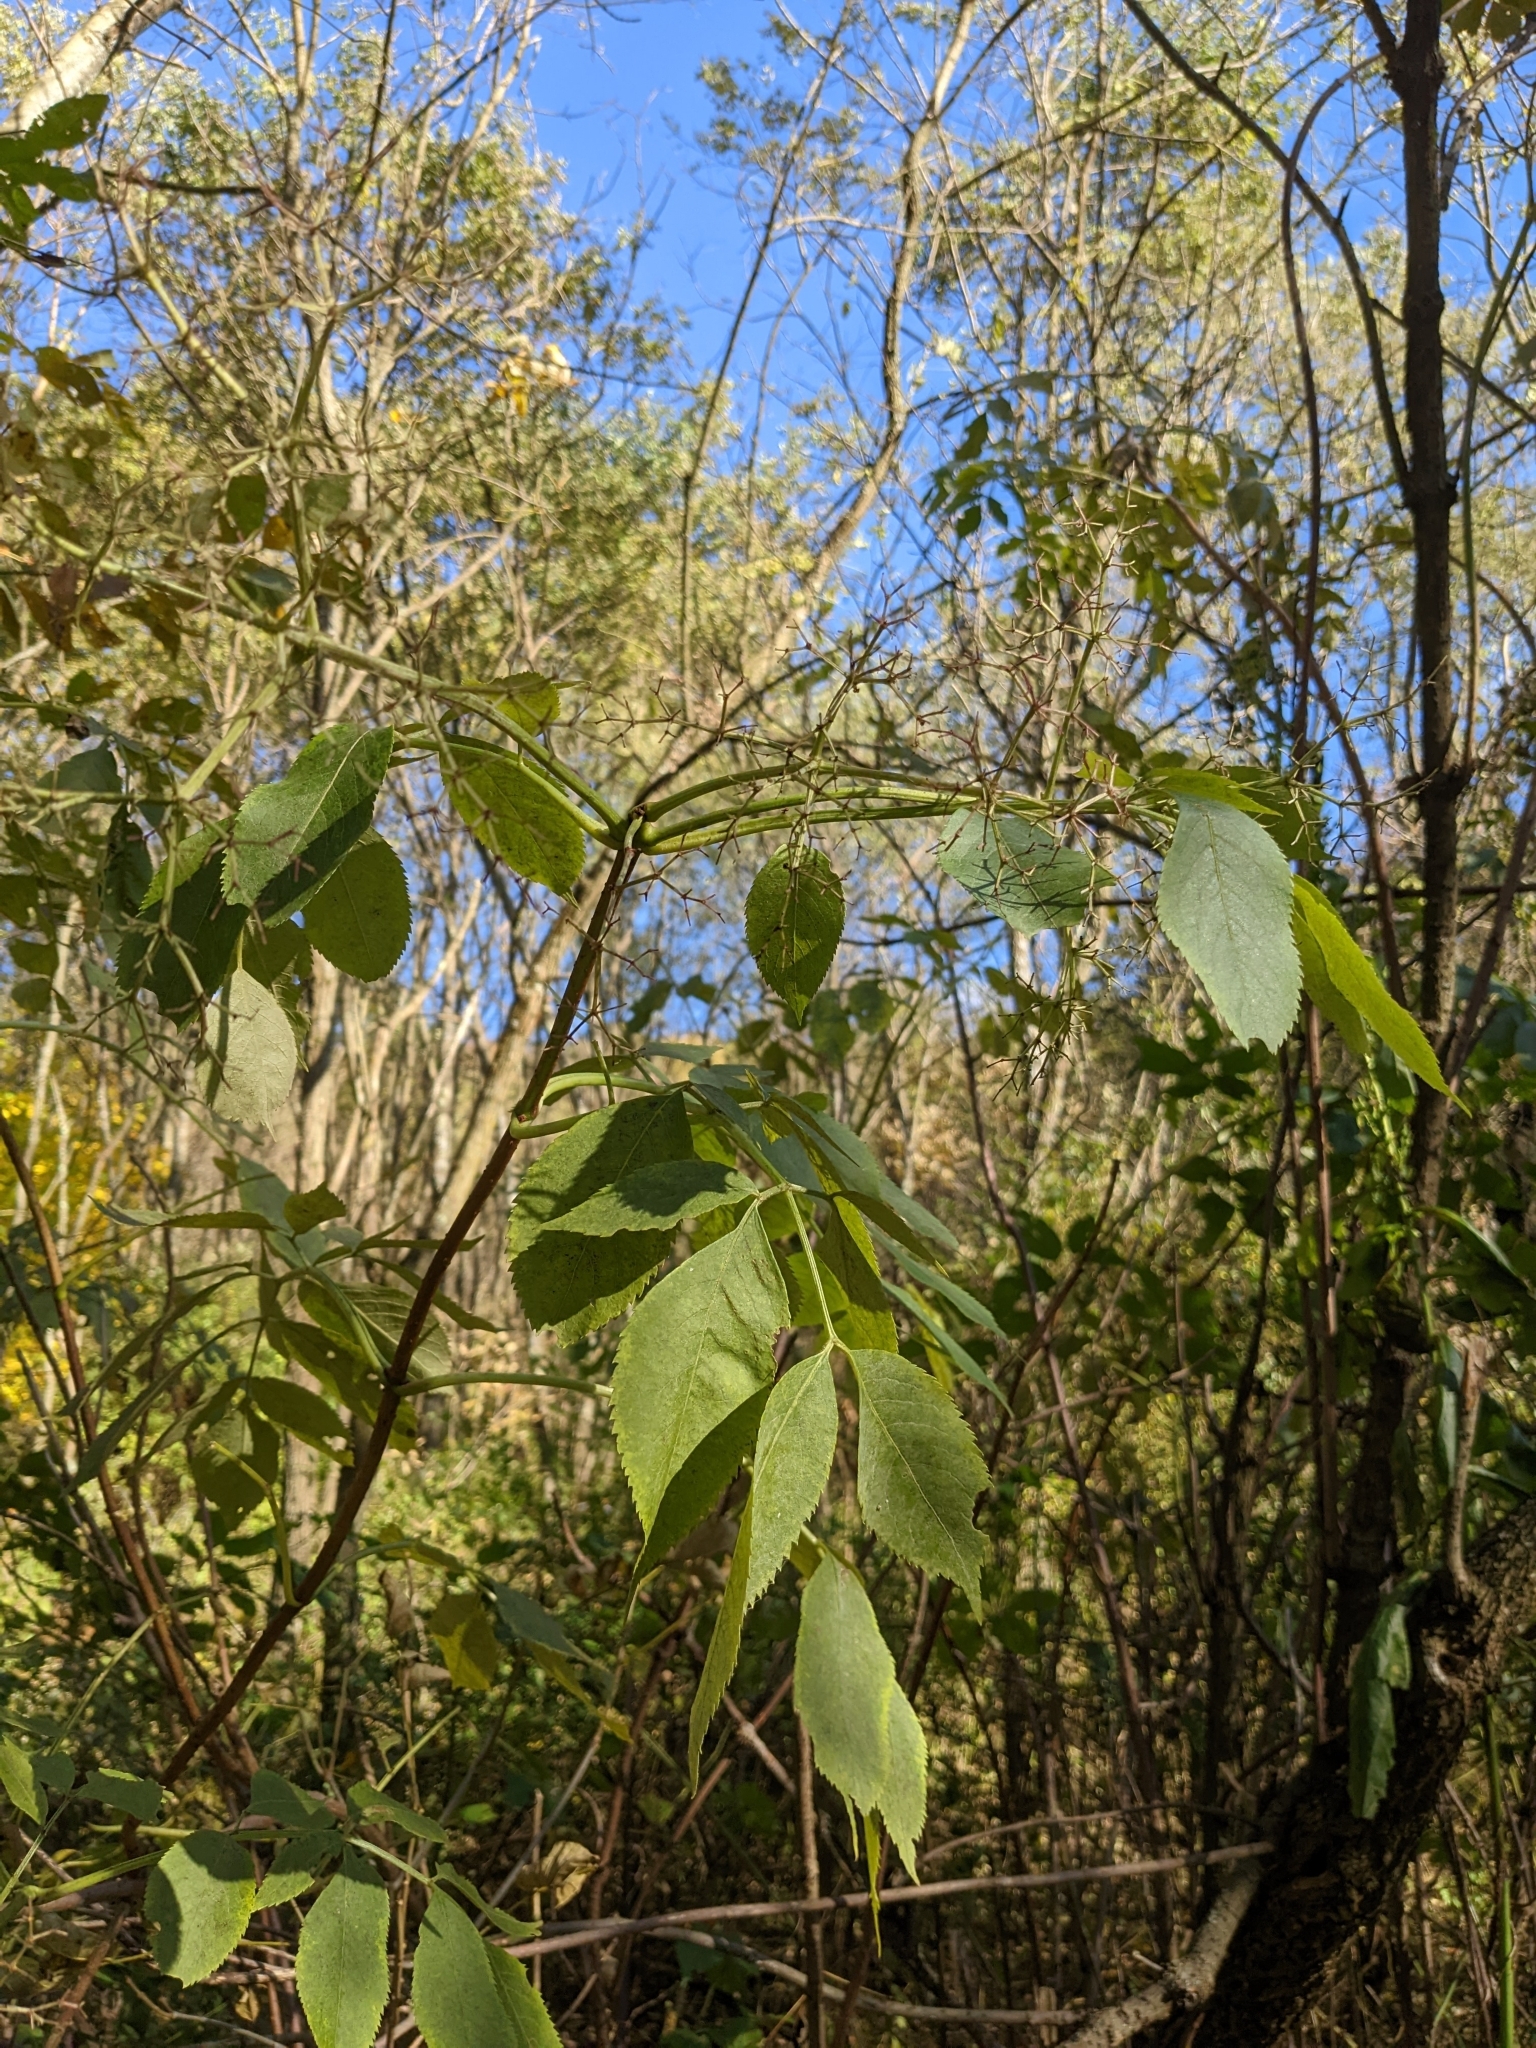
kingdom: Plantae
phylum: Tracheophyta
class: Magnoliopsida
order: Dipsacales
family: Viburnaceae
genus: Sambucus
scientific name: Sambucus canadensis
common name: American elder
